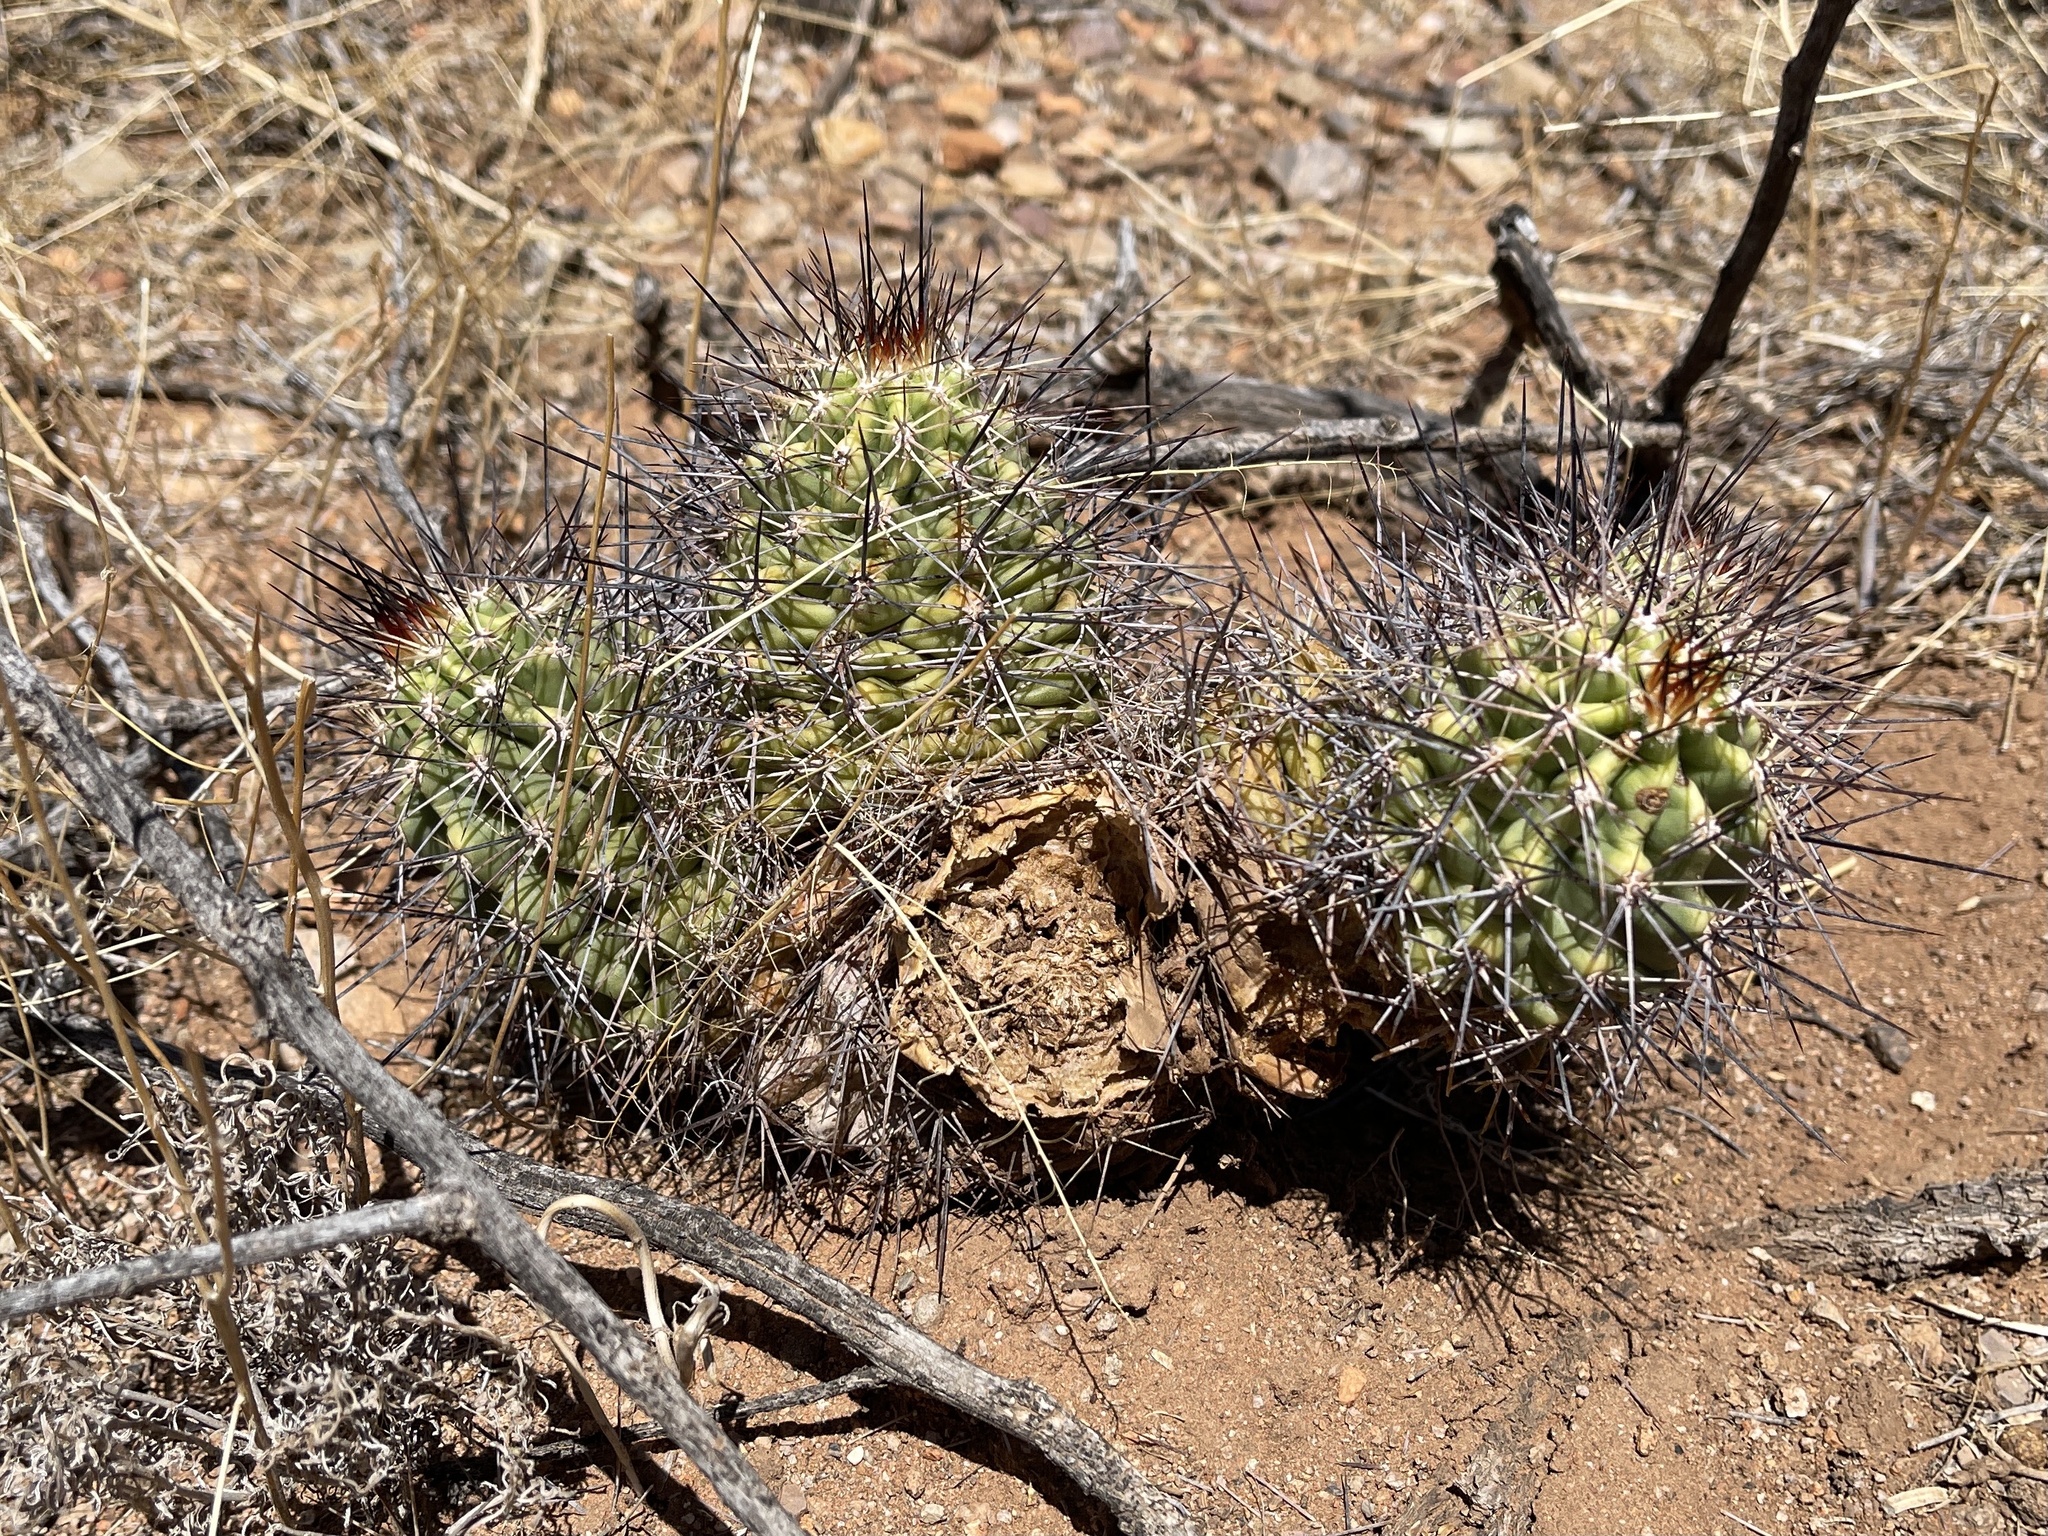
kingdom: Plantae
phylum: Tracheophyta
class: Magnoliopsida
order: Caryophyllales
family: Cactaceae
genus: Echinocereus
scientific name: Echinocereus coccineus
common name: Scarlet hedgehog cactus
